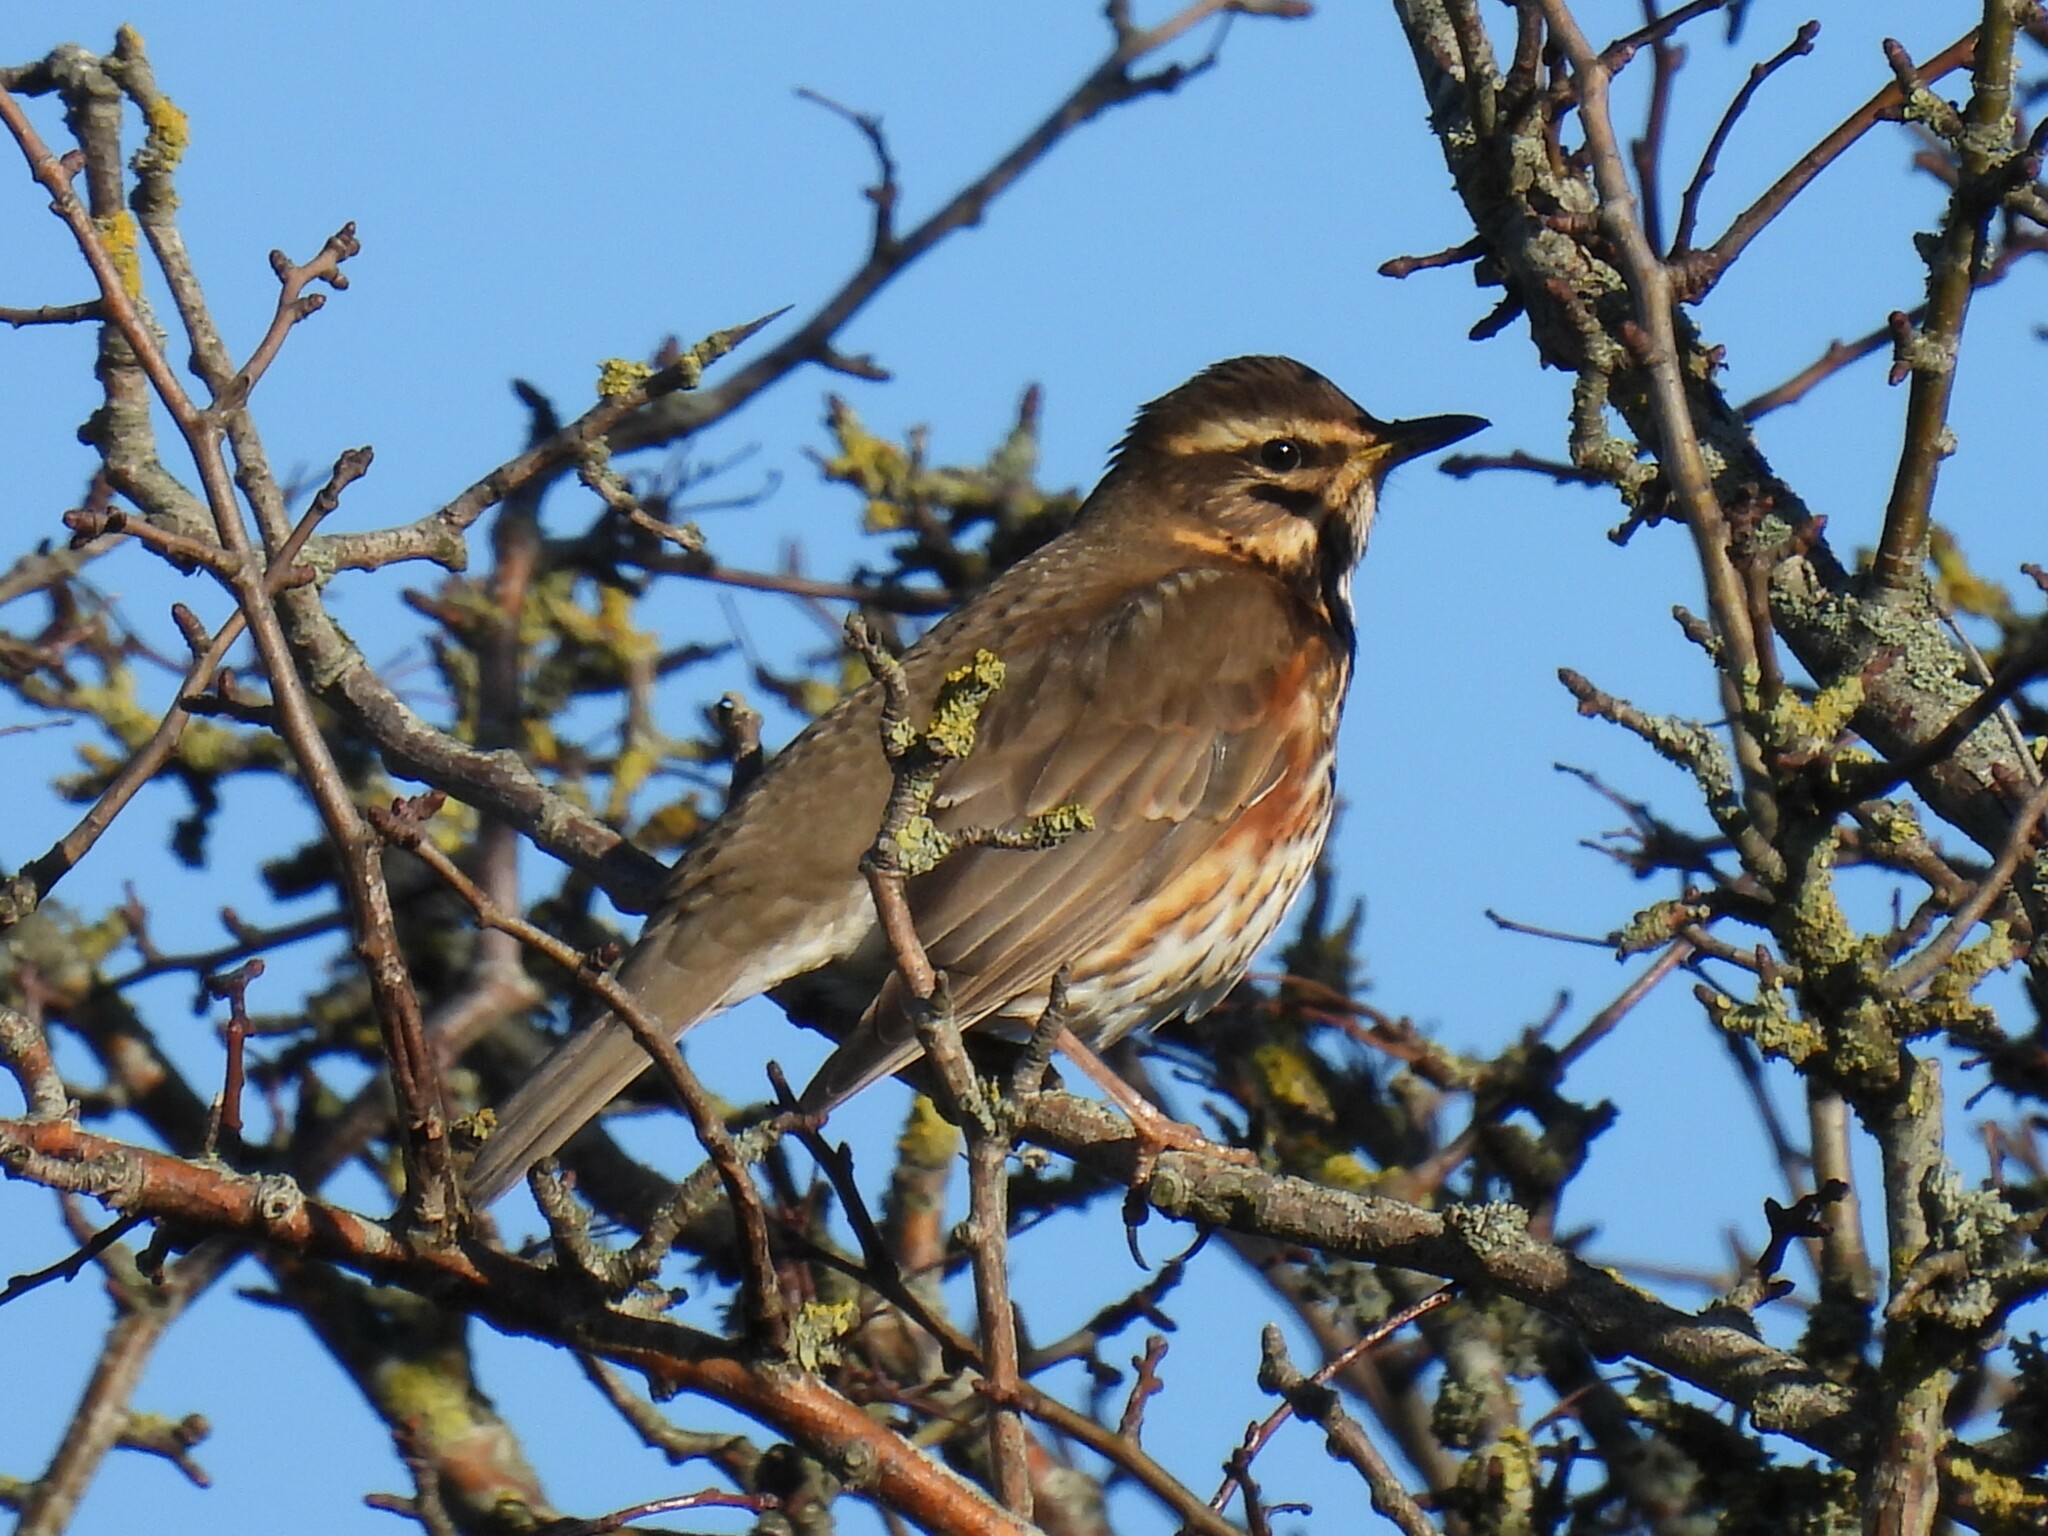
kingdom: Animalia
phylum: Chordata
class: Aves
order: Passeriformes
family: Turdidae
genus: Turdus
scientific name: Turdus iliacus
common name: Redwing
